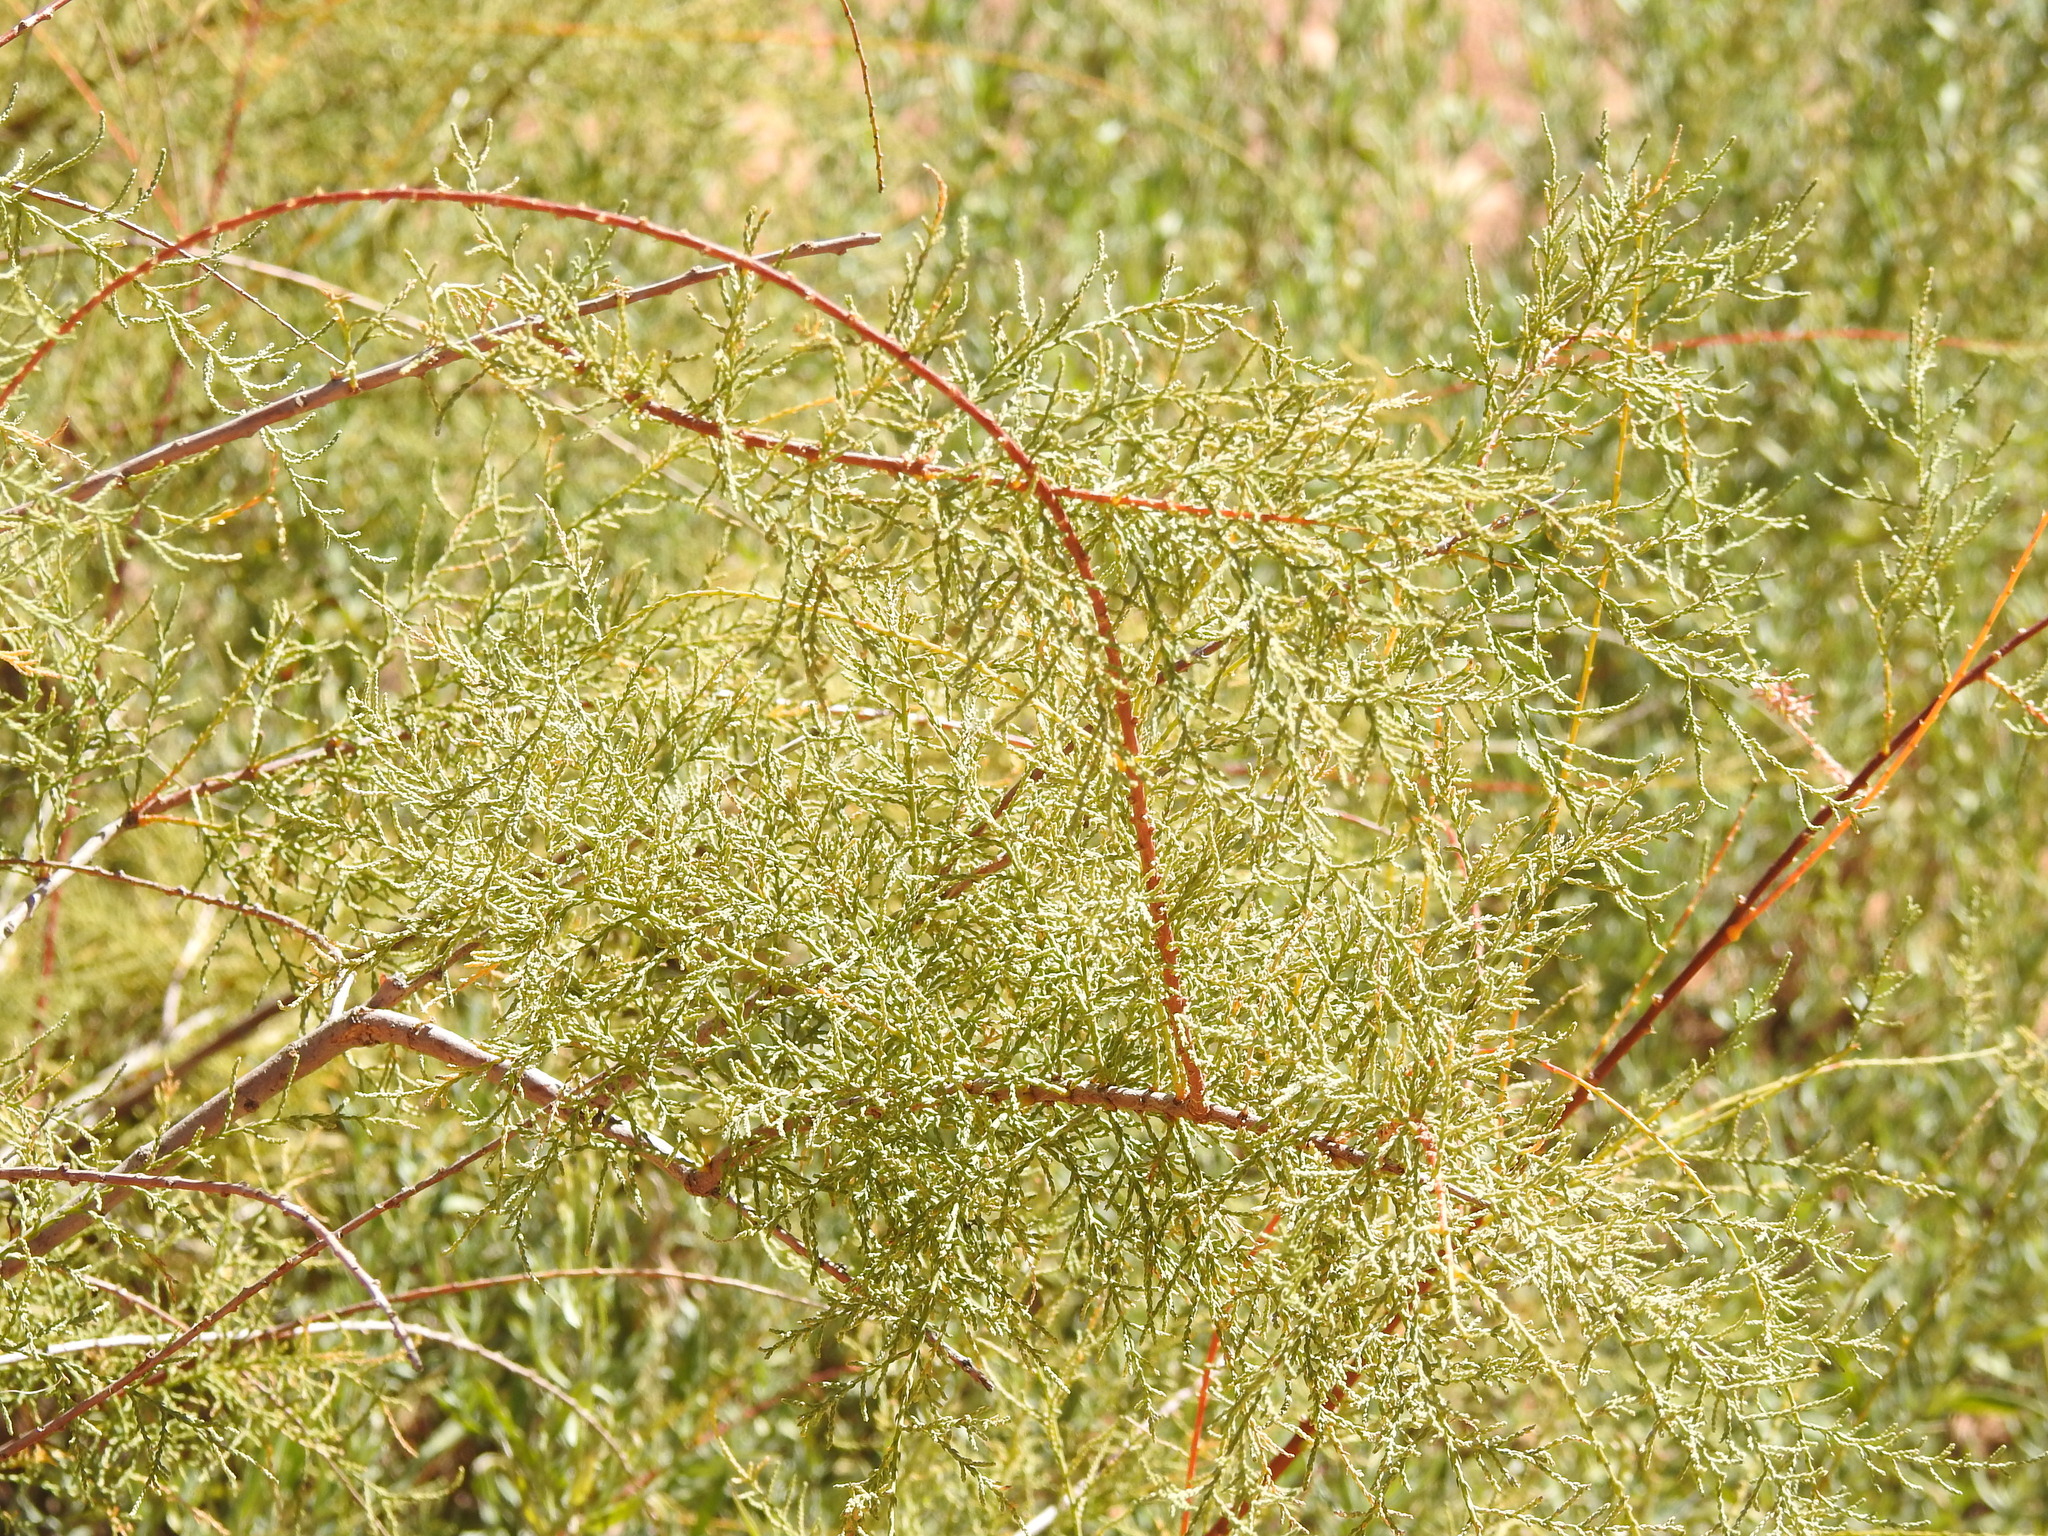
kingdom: Plantae
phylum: Tracheophyta
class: Magnoliopsida
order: Caryophyllales
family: Tamaricaceae
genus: Tamarix
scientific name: Tamarix
